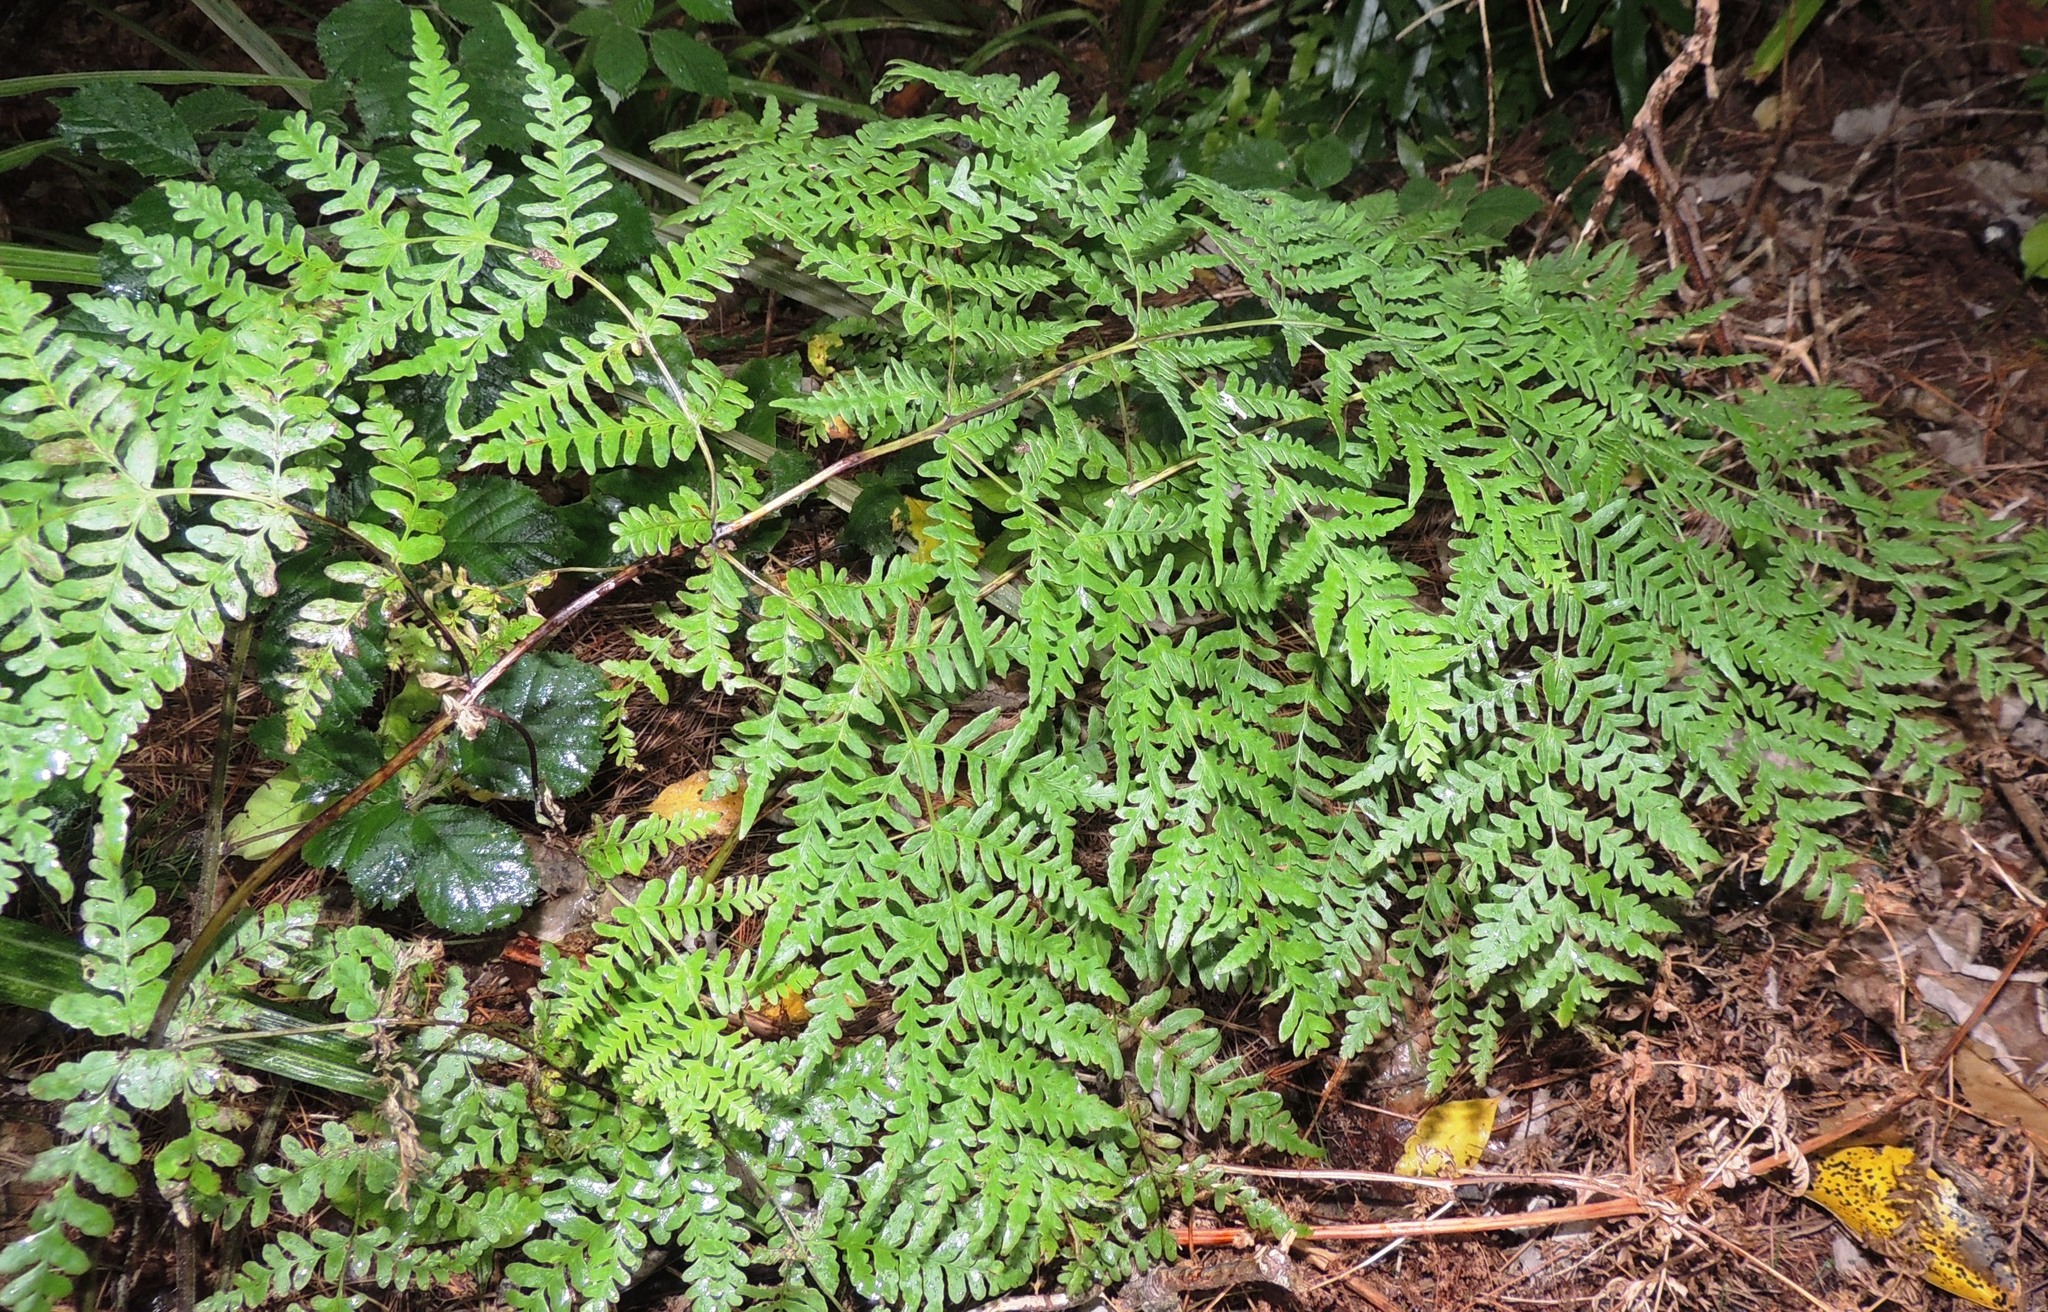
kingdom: Plantae
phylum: Tracheophyta
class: Polypodiopsida
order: Polypodiales
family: Dennstaedtiaceae
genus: Histiopteris
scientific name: Histiopteris incisa
